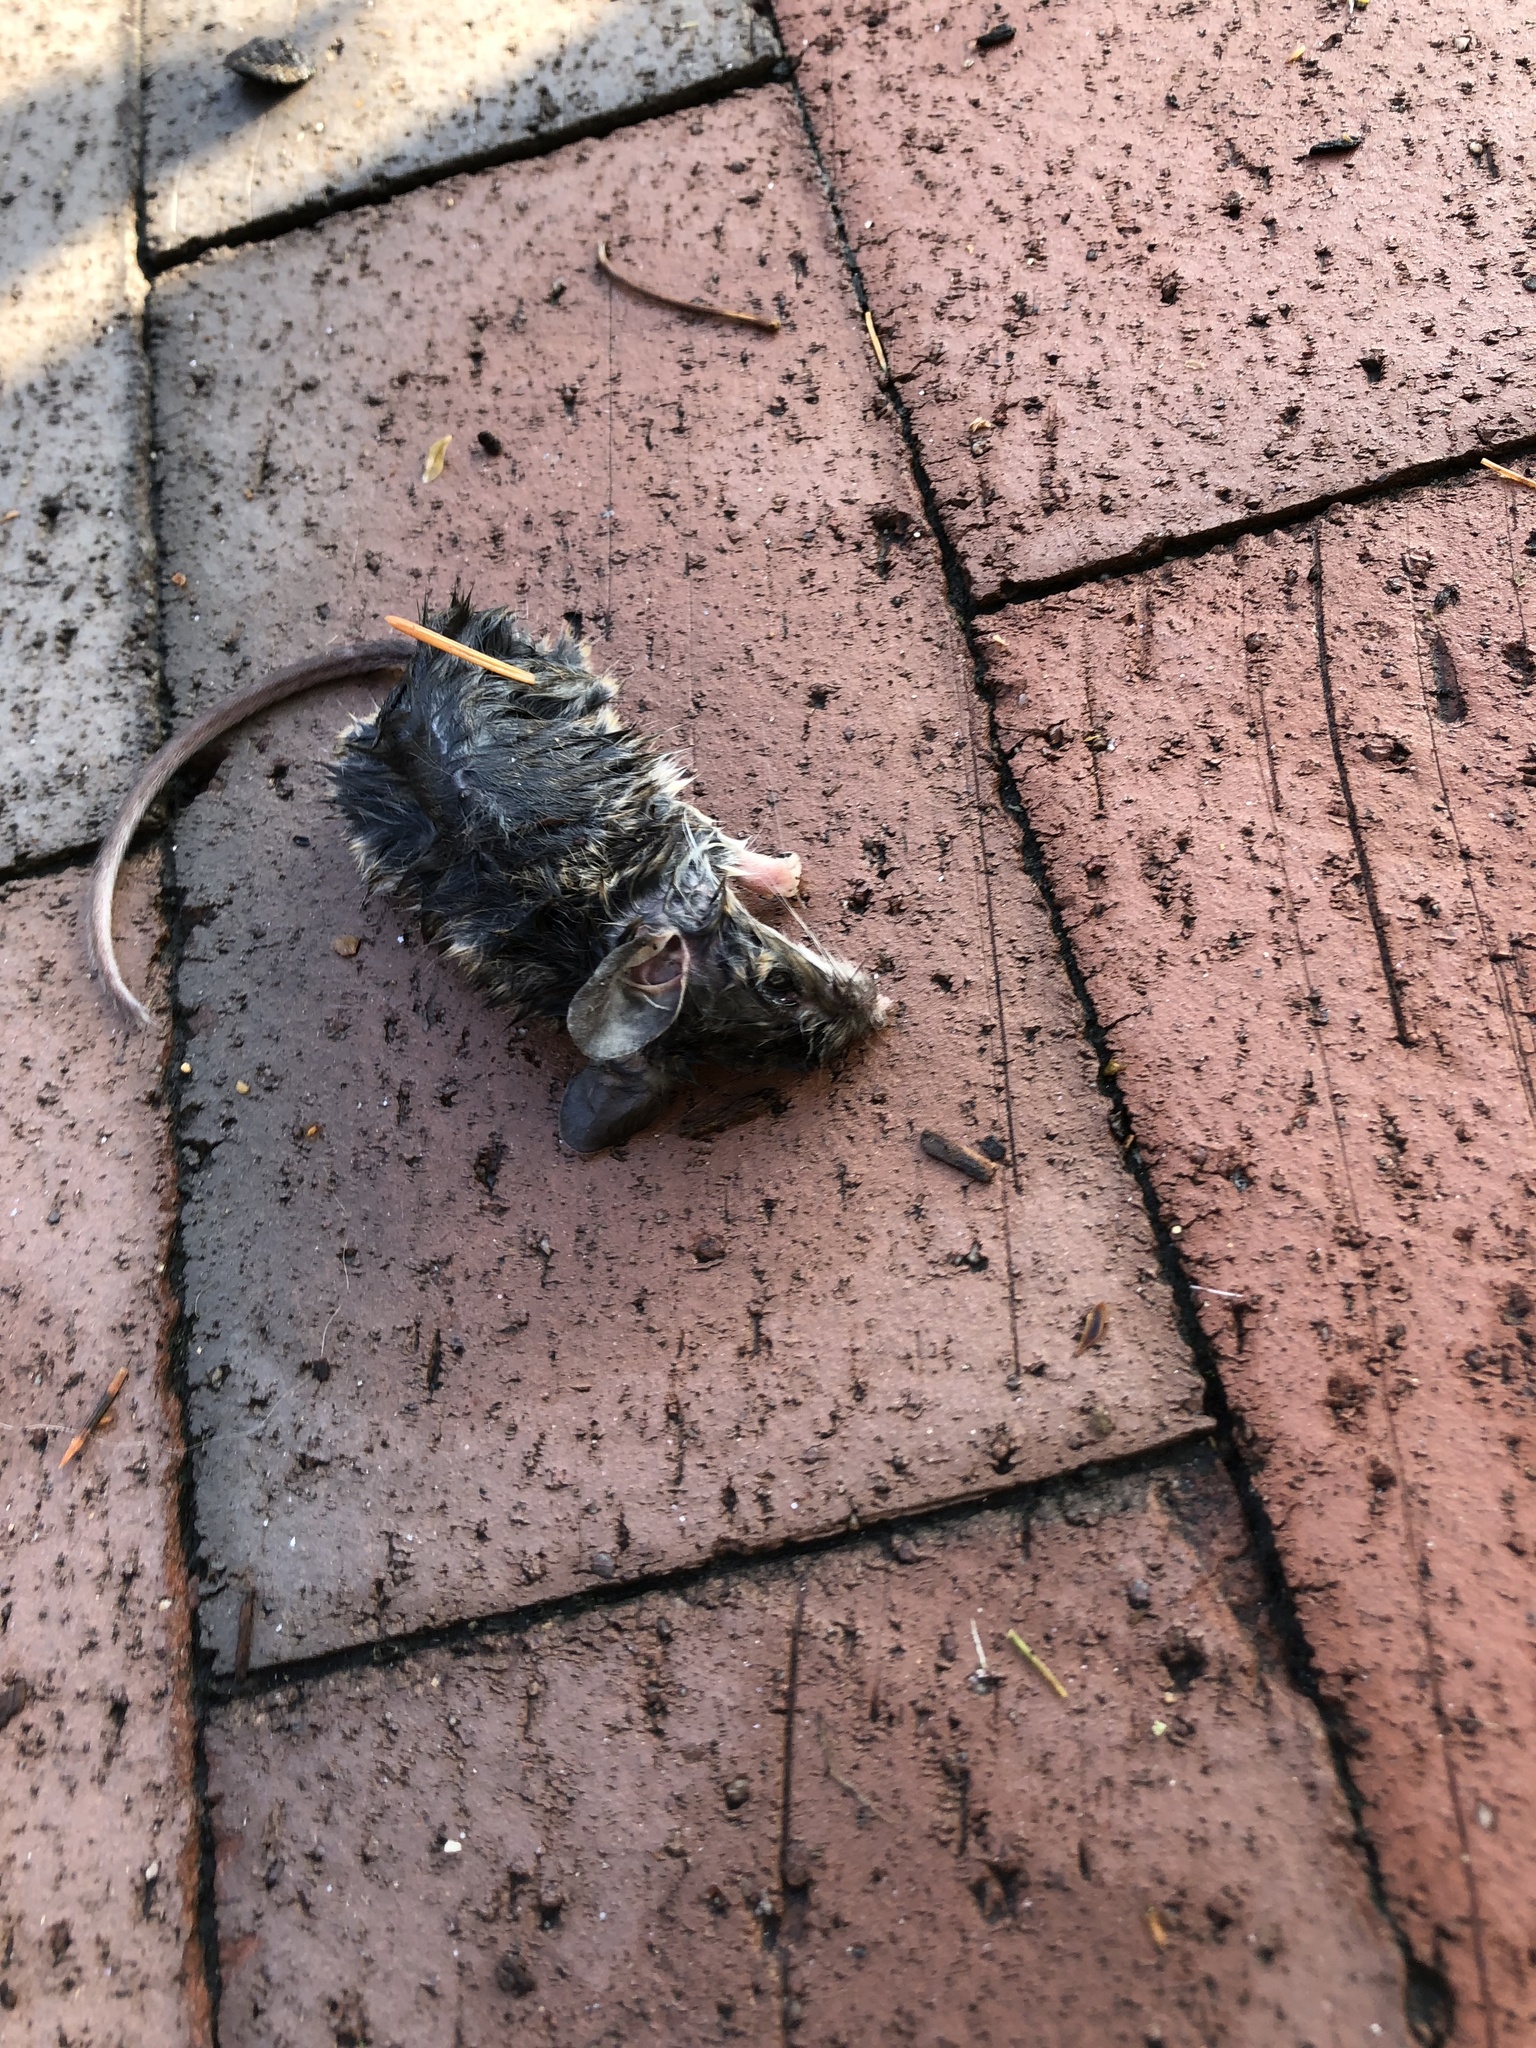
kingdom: Animalia
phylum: Chordata
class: Mammalia
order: Rodentia
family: Cricetidae
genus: Peromyscus
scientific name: Peromyscus leucopus
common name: White-footed deermouse
